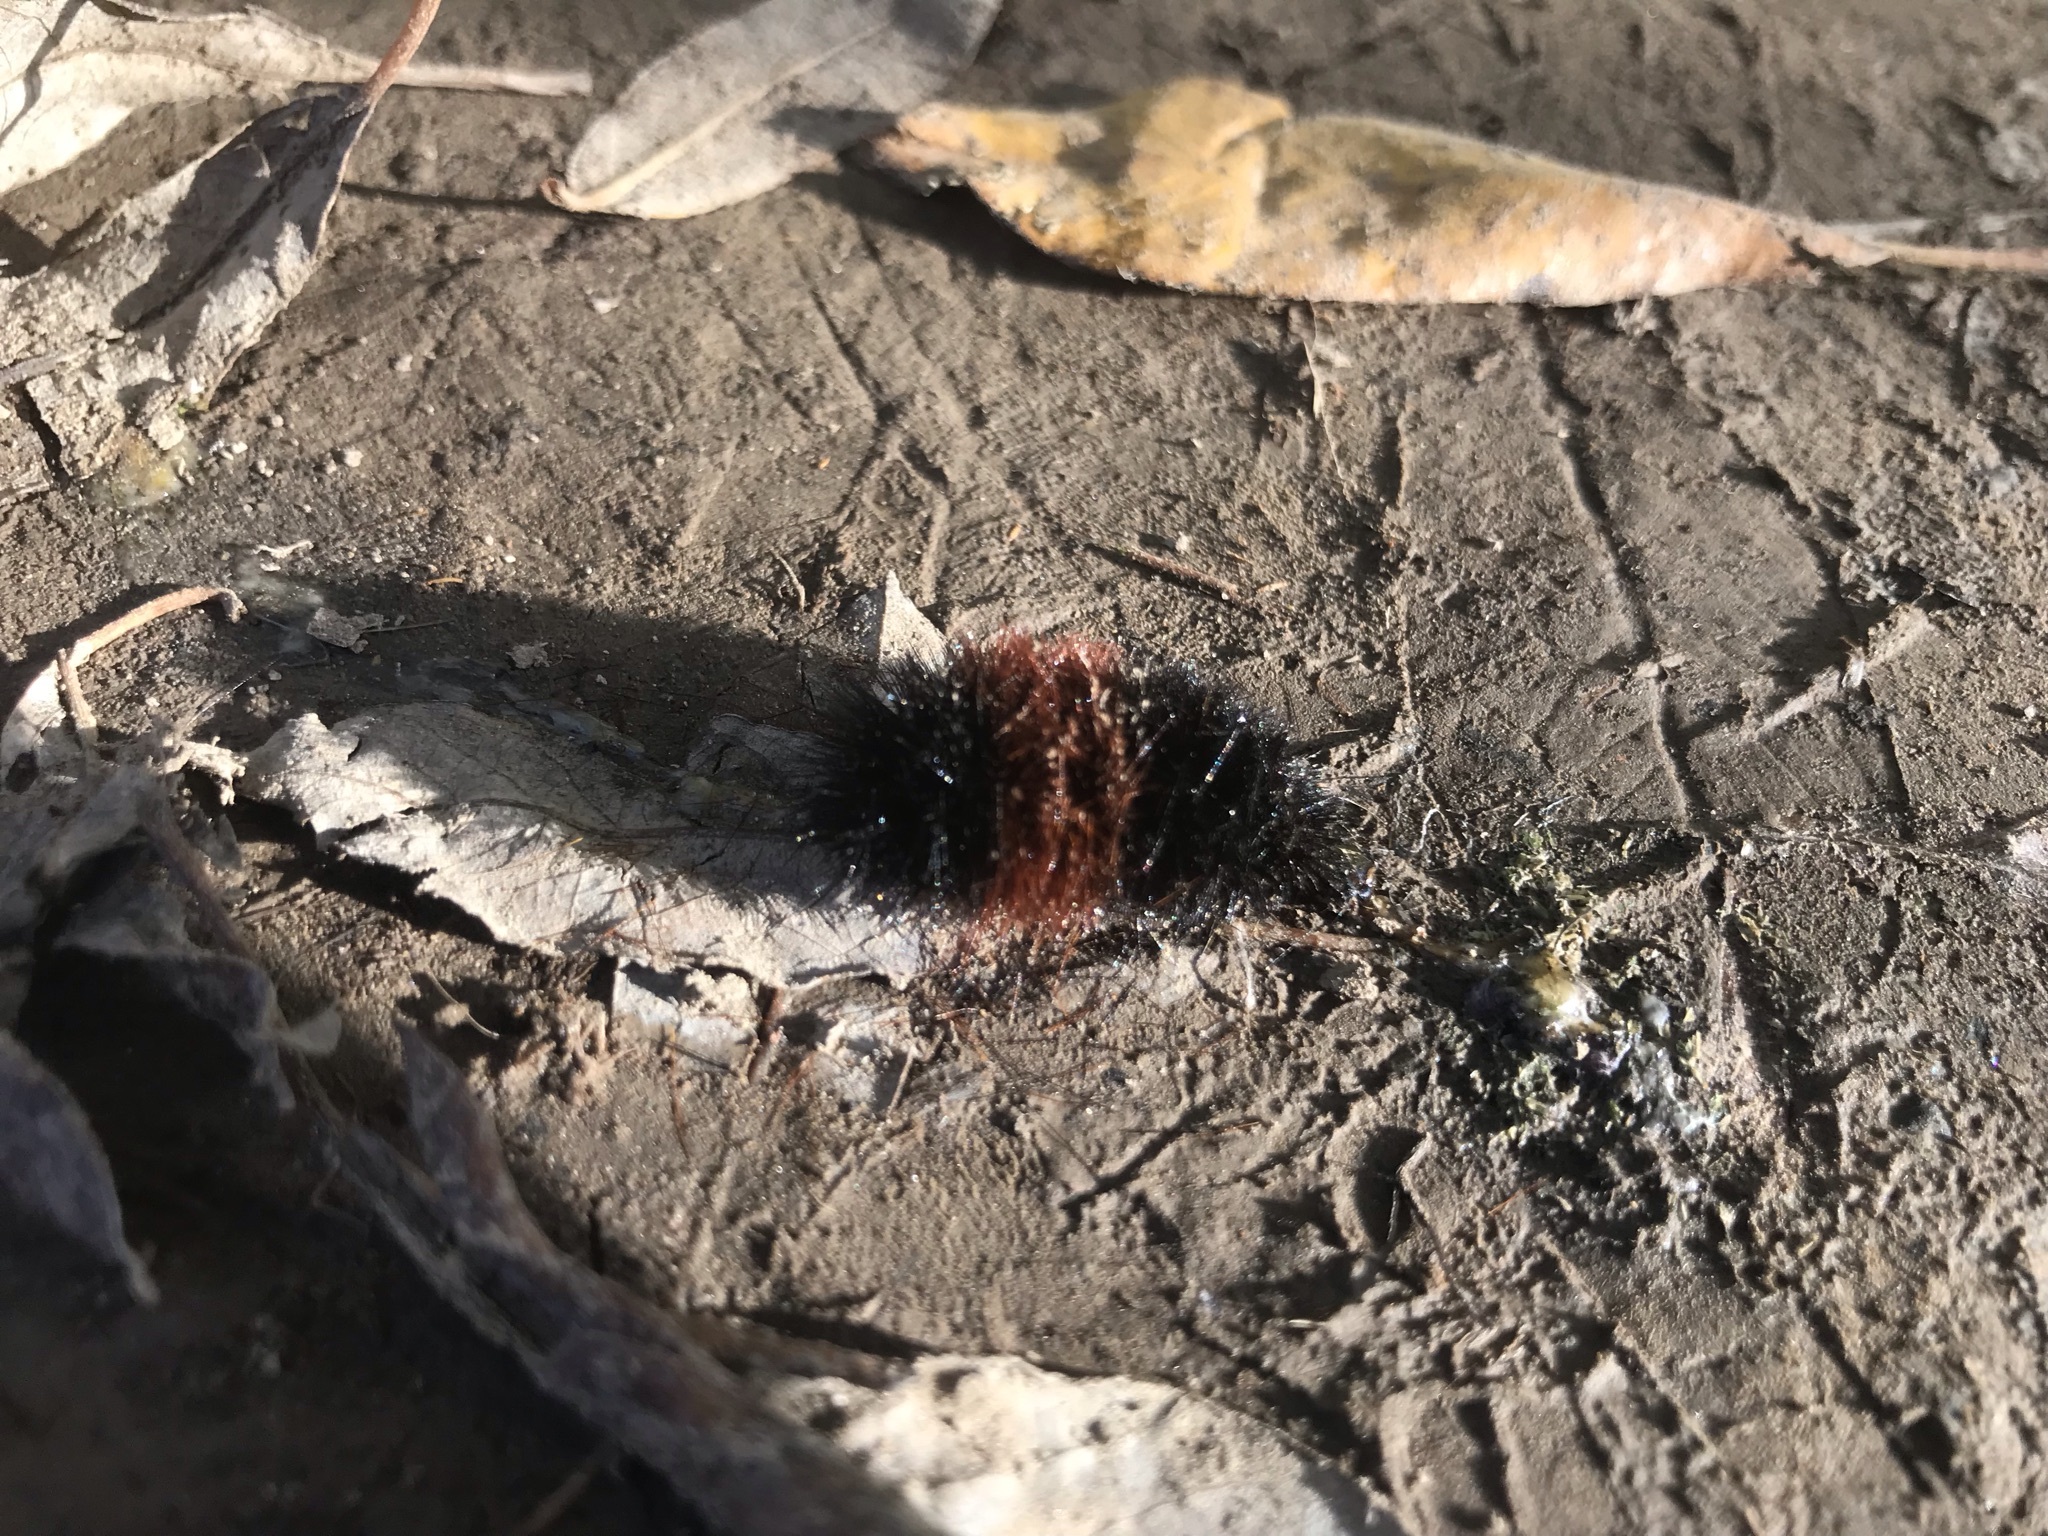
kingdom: Animalia
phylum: Arthropoda
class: Insecta
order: Lepidoptera
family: Erebidae
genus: Pyrrharctia
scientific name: Pyrrharctia isabella
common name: Isabella tiger moth
